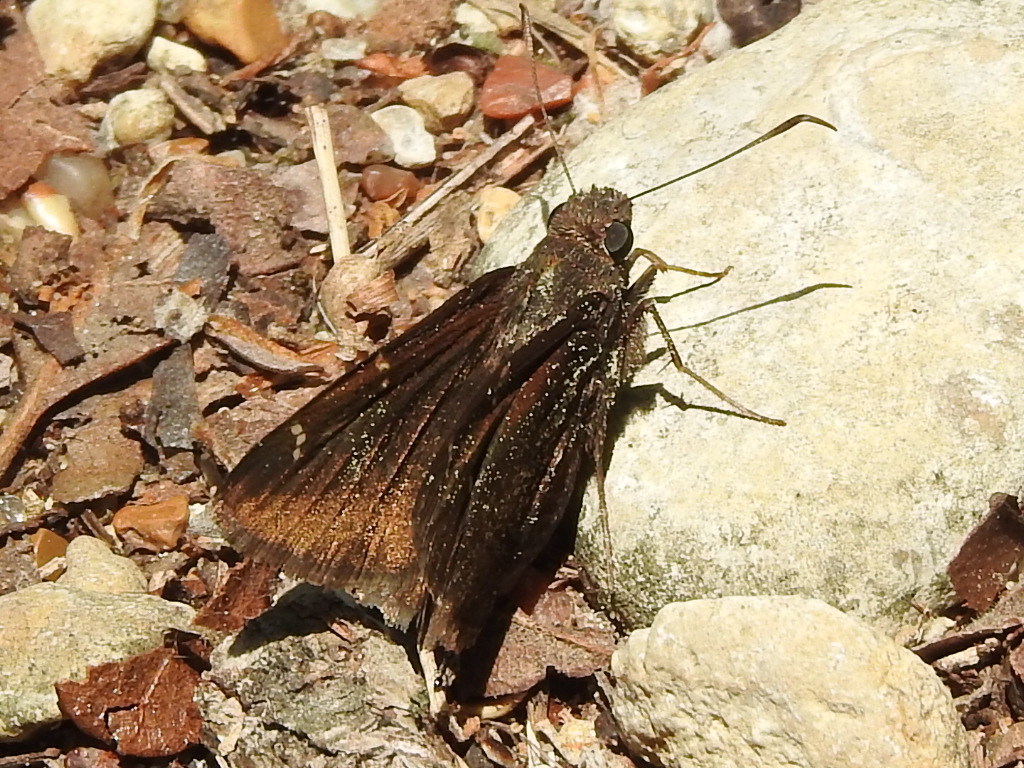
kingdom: Animalia
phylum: Arthropoda
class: Insecta
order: Lepidoptera
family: Hesperiidae
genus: Thorybes
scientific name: Thorybes pylades
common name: Northern cloudywing
